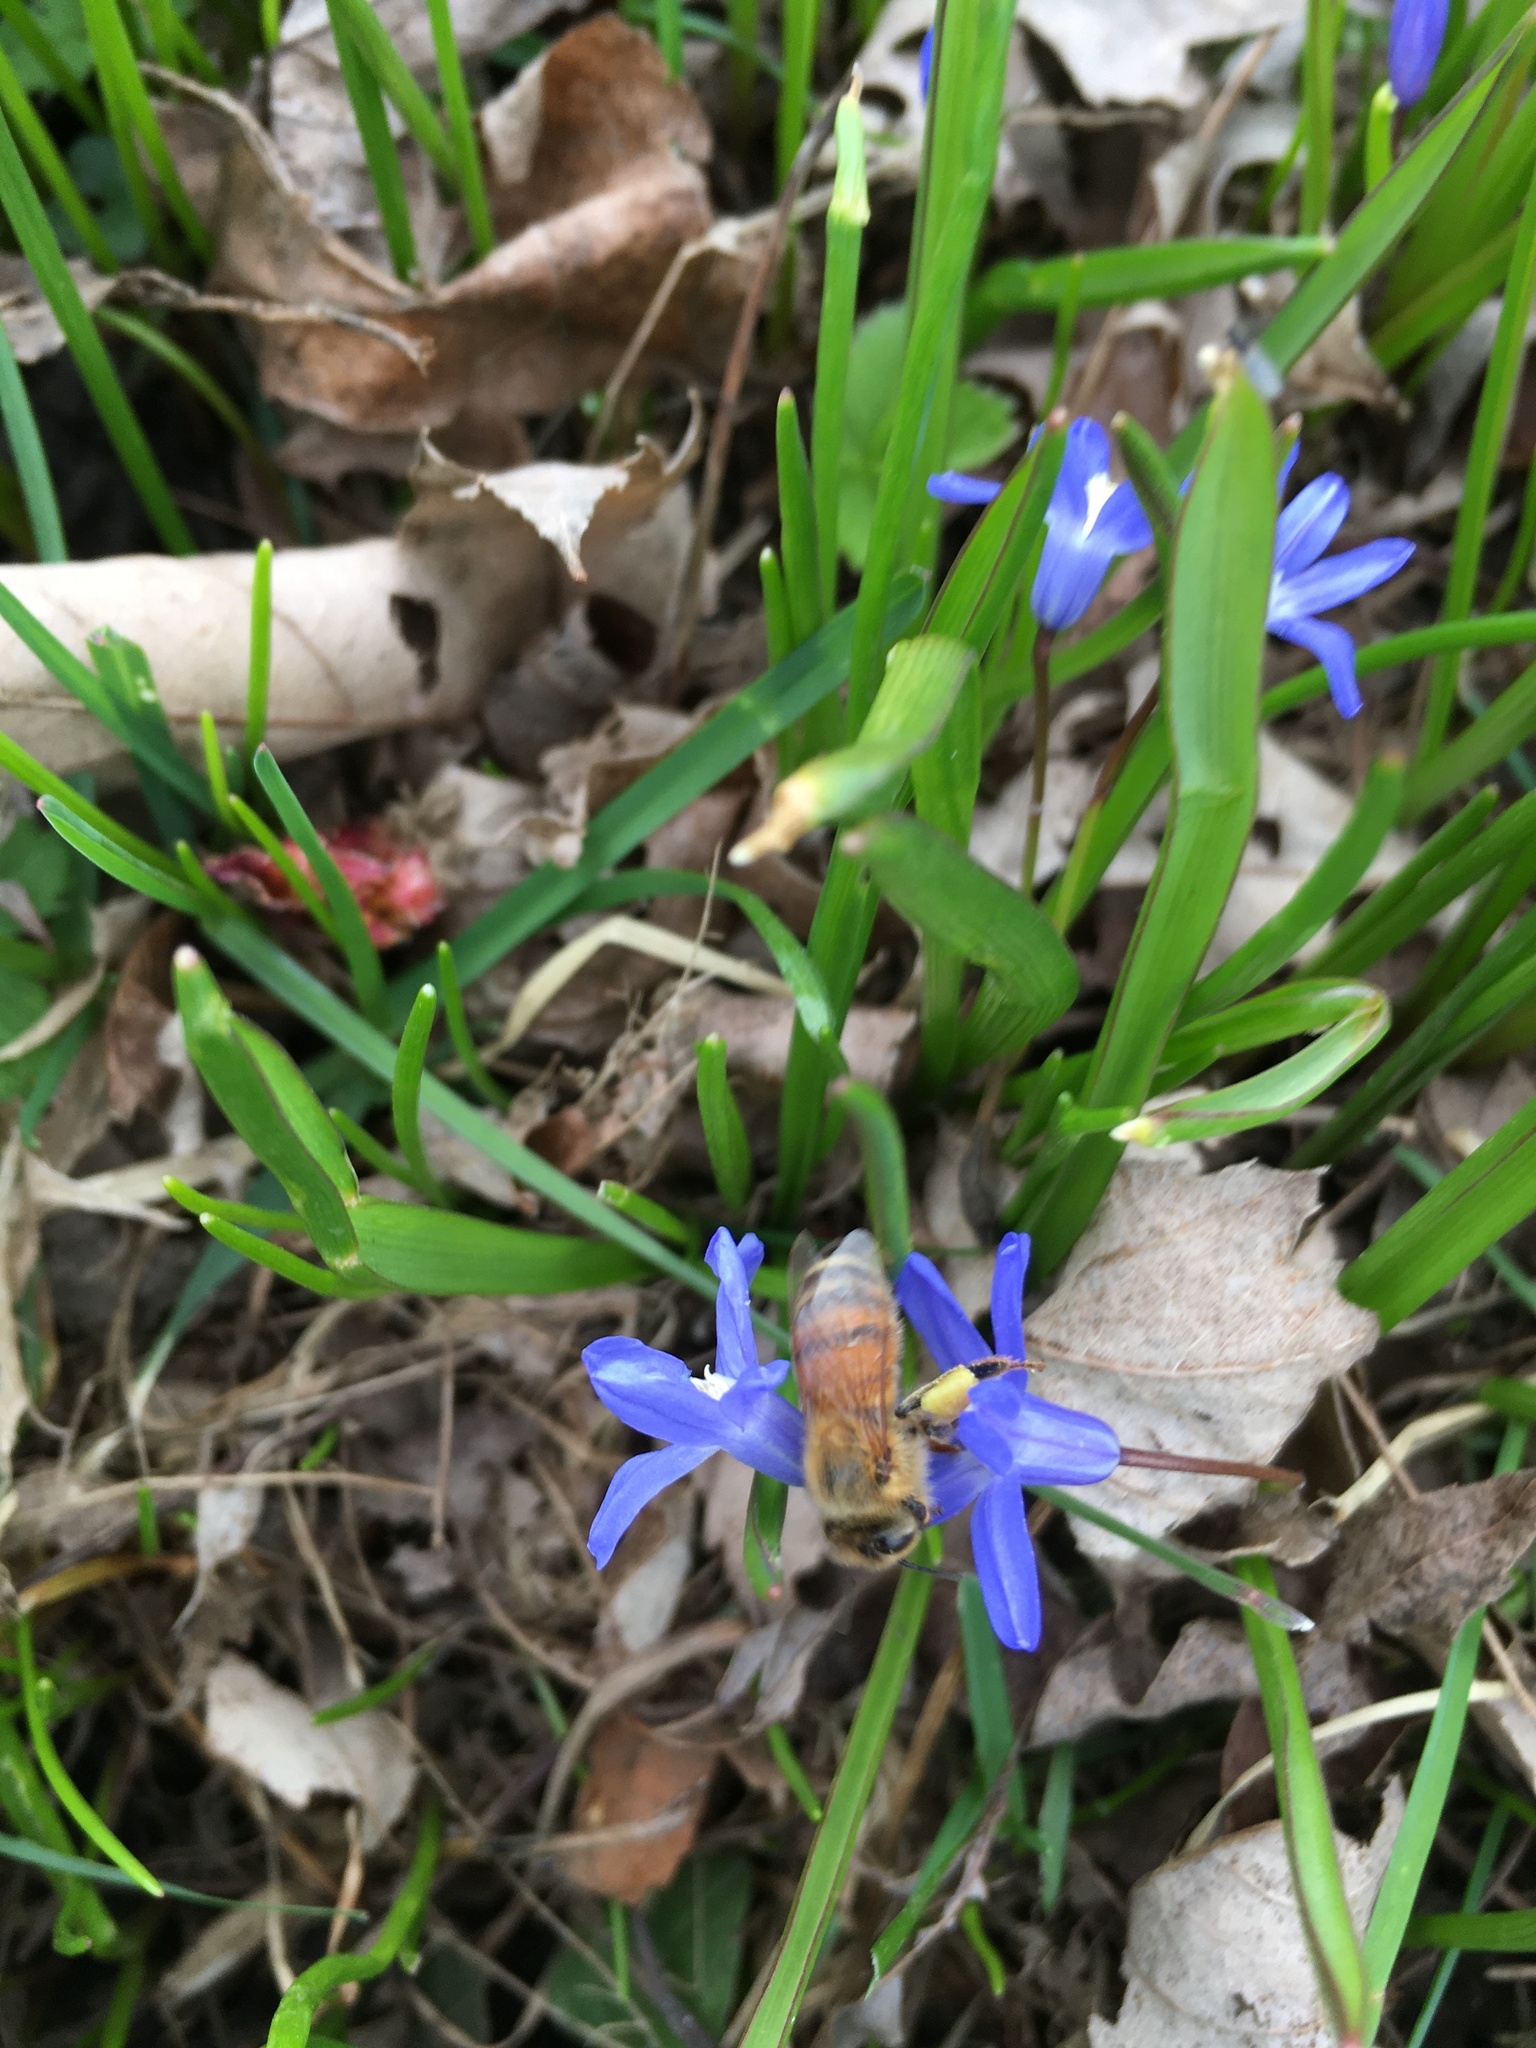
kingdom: Animalia
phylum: Arthropoda
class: Insecta
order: Hymenoptera
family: Apidae
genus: Apis
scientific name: Apis mellifera
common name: Honey bee
